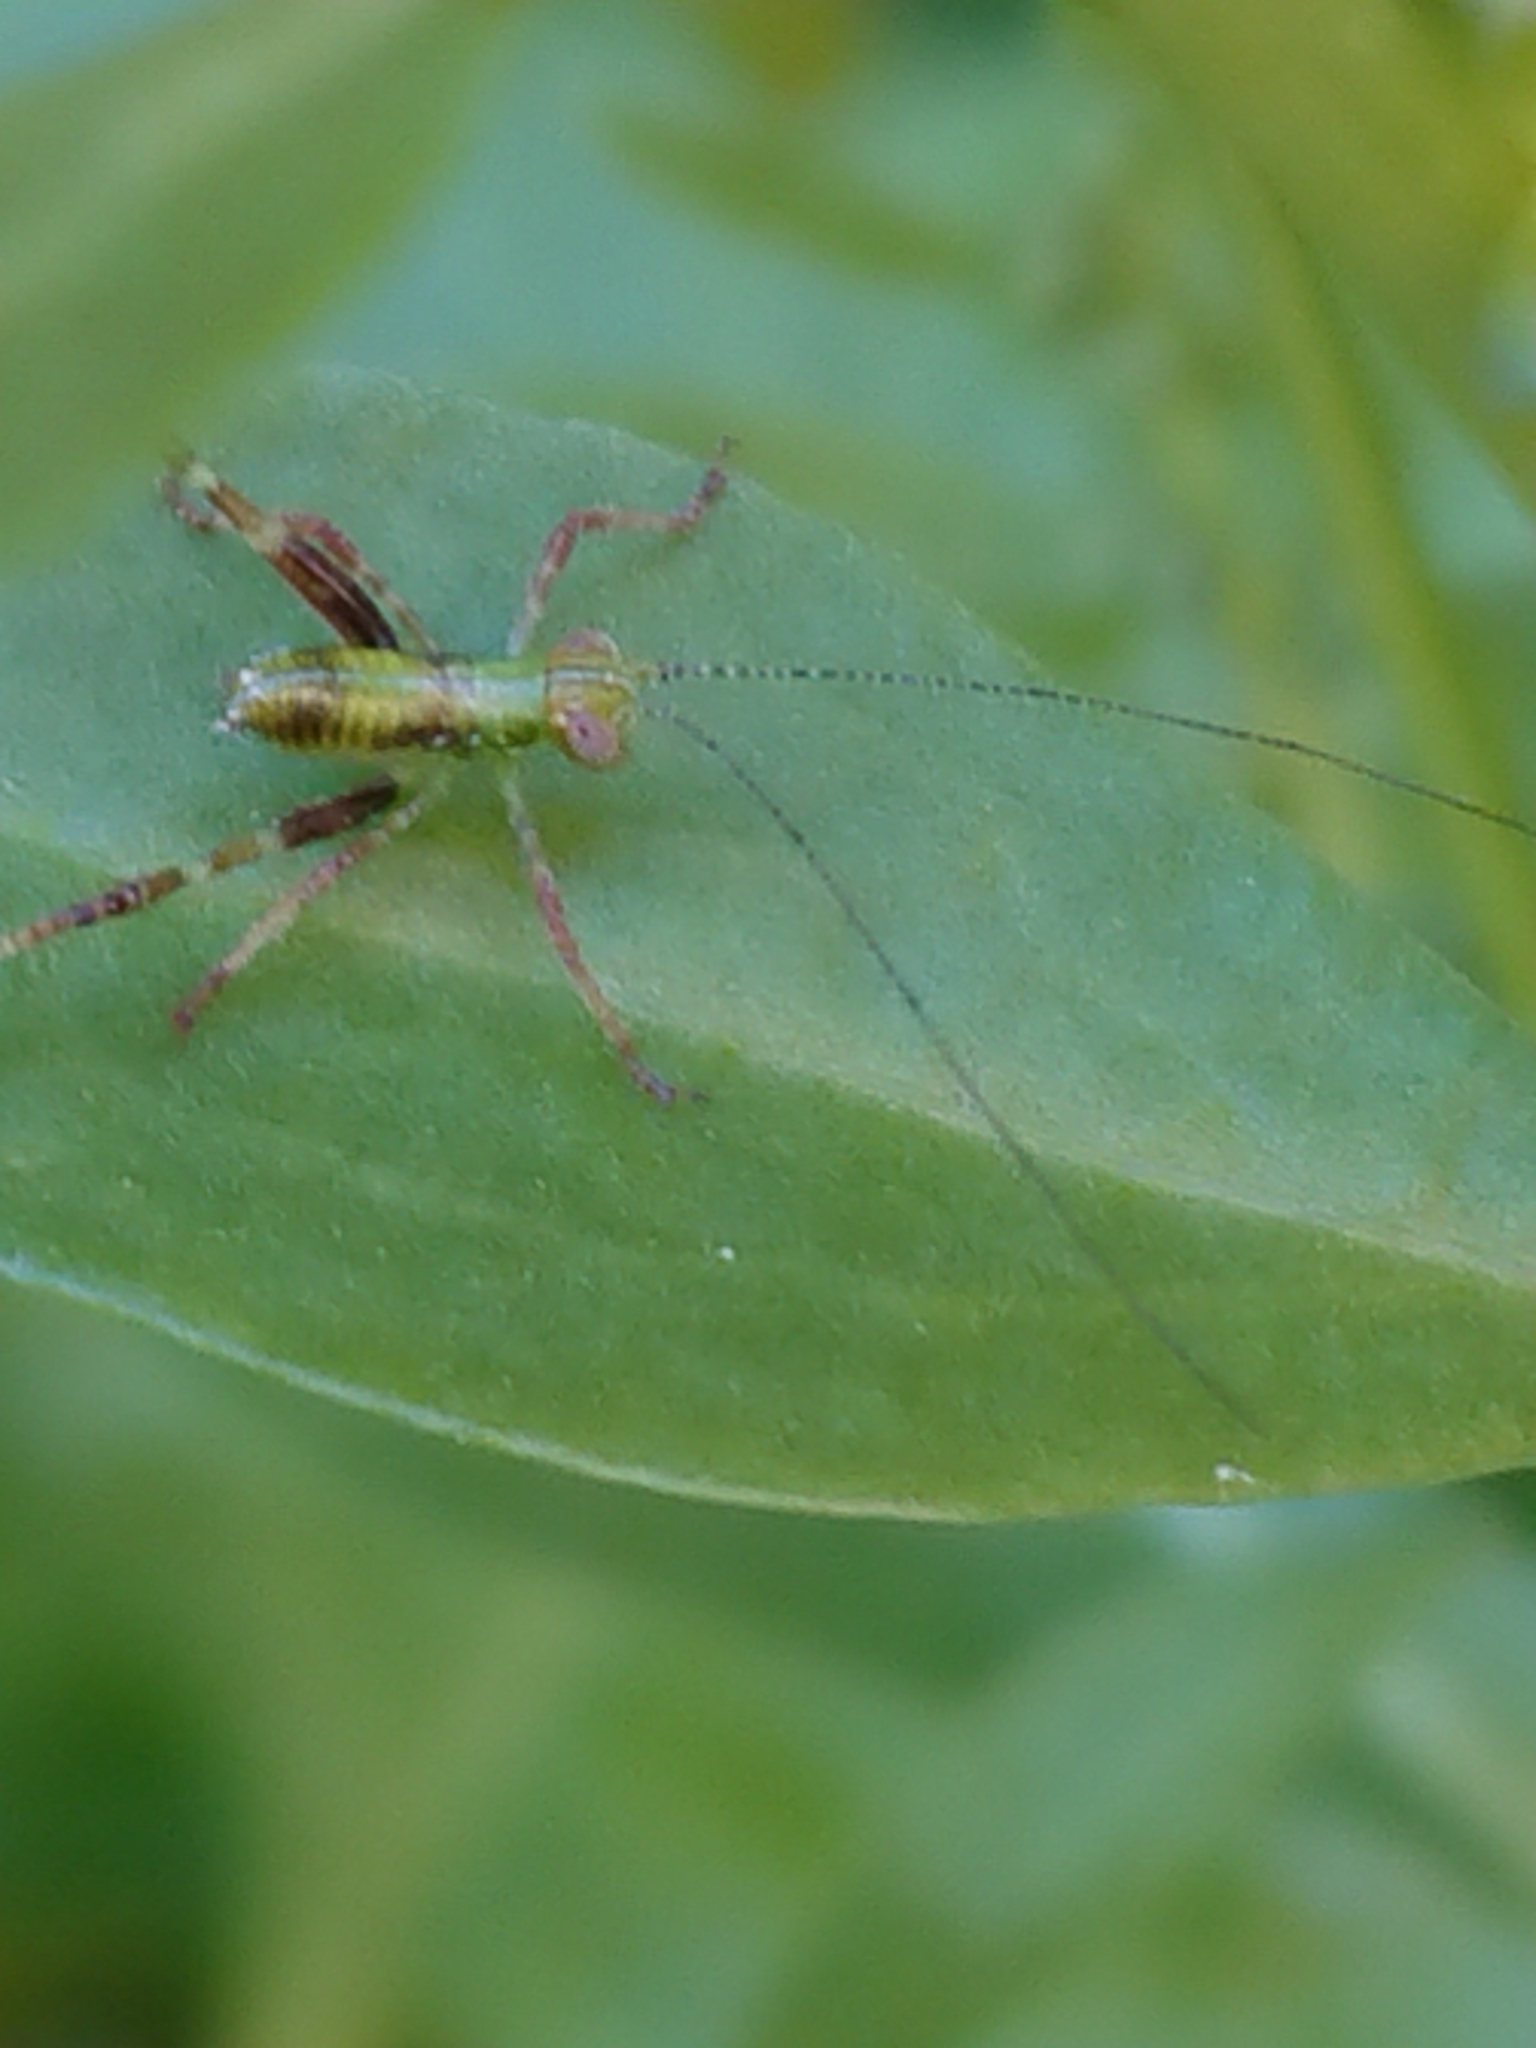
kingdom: Animalia
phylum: Arthropoda
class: Insecta
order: Orthoptera
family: Tettigoniidae
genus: Caedicia
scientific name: Caedicia simplex
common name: Common garden katydid
